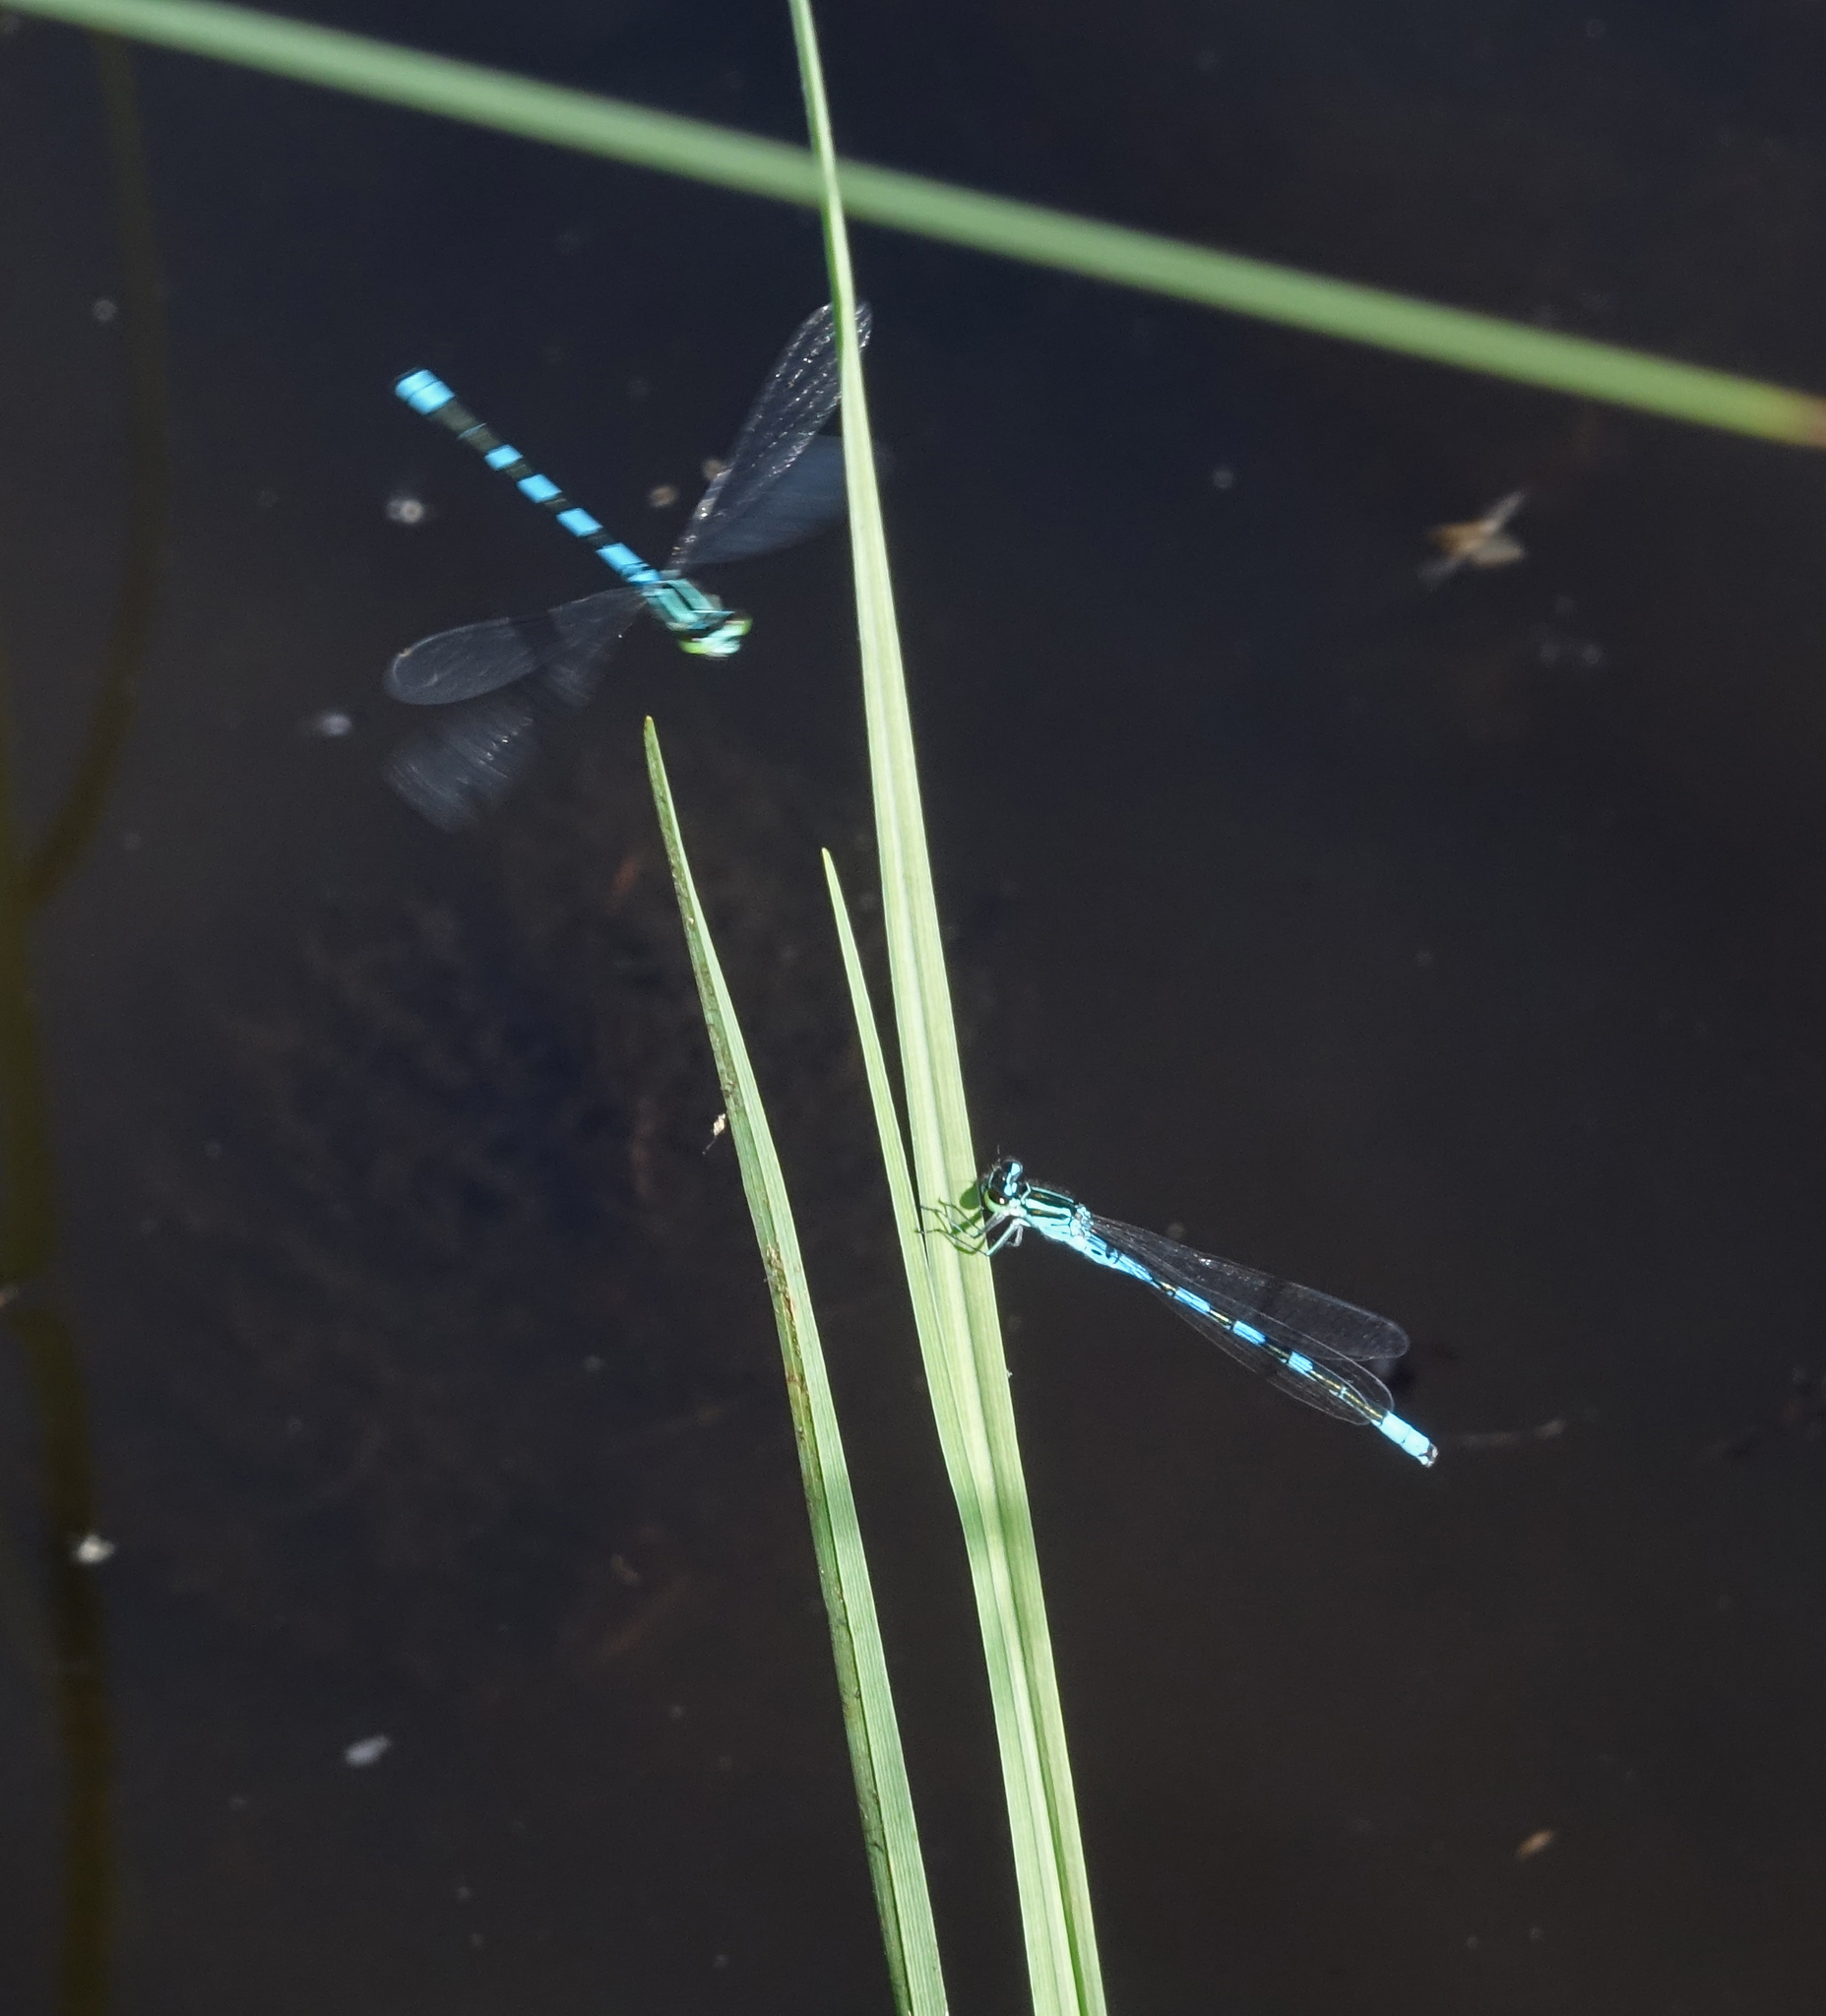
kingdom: Animalia
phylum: Arthropoda
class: Insecta
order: Odonata
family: Coenagrionidae
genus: Coenagrion
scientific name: Coenagrion hastulatum
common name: Spearhead bluet
